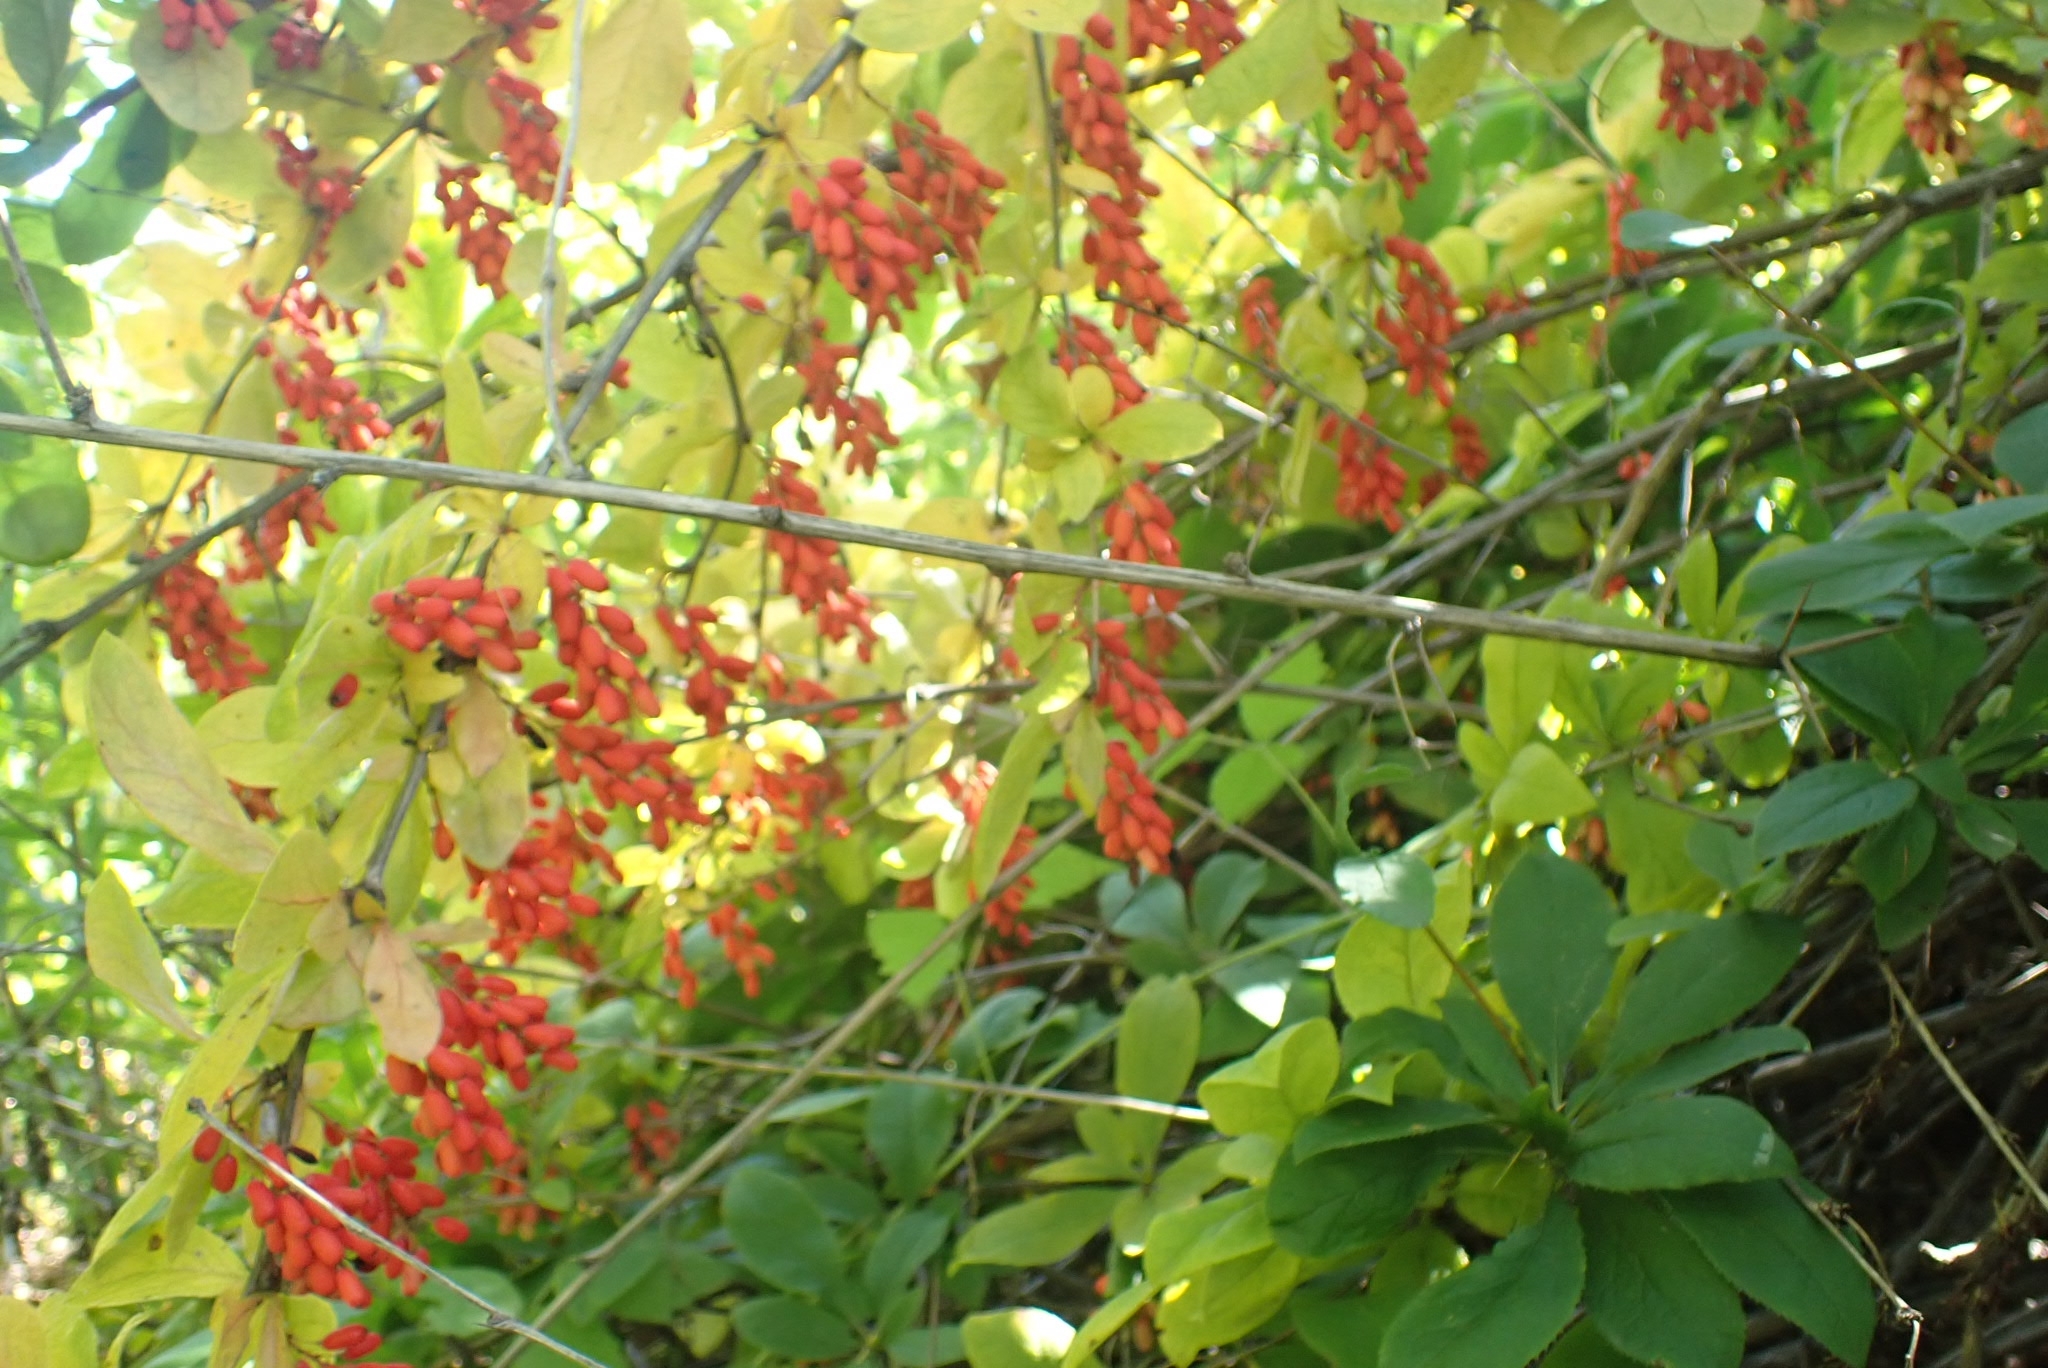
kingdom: Plantae
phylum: Tracheophyta
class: Magnoliopsida
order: Ranunculales
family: Berberidaceae
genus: Berberis
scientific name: Berberis vulgaris
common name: Barberry
